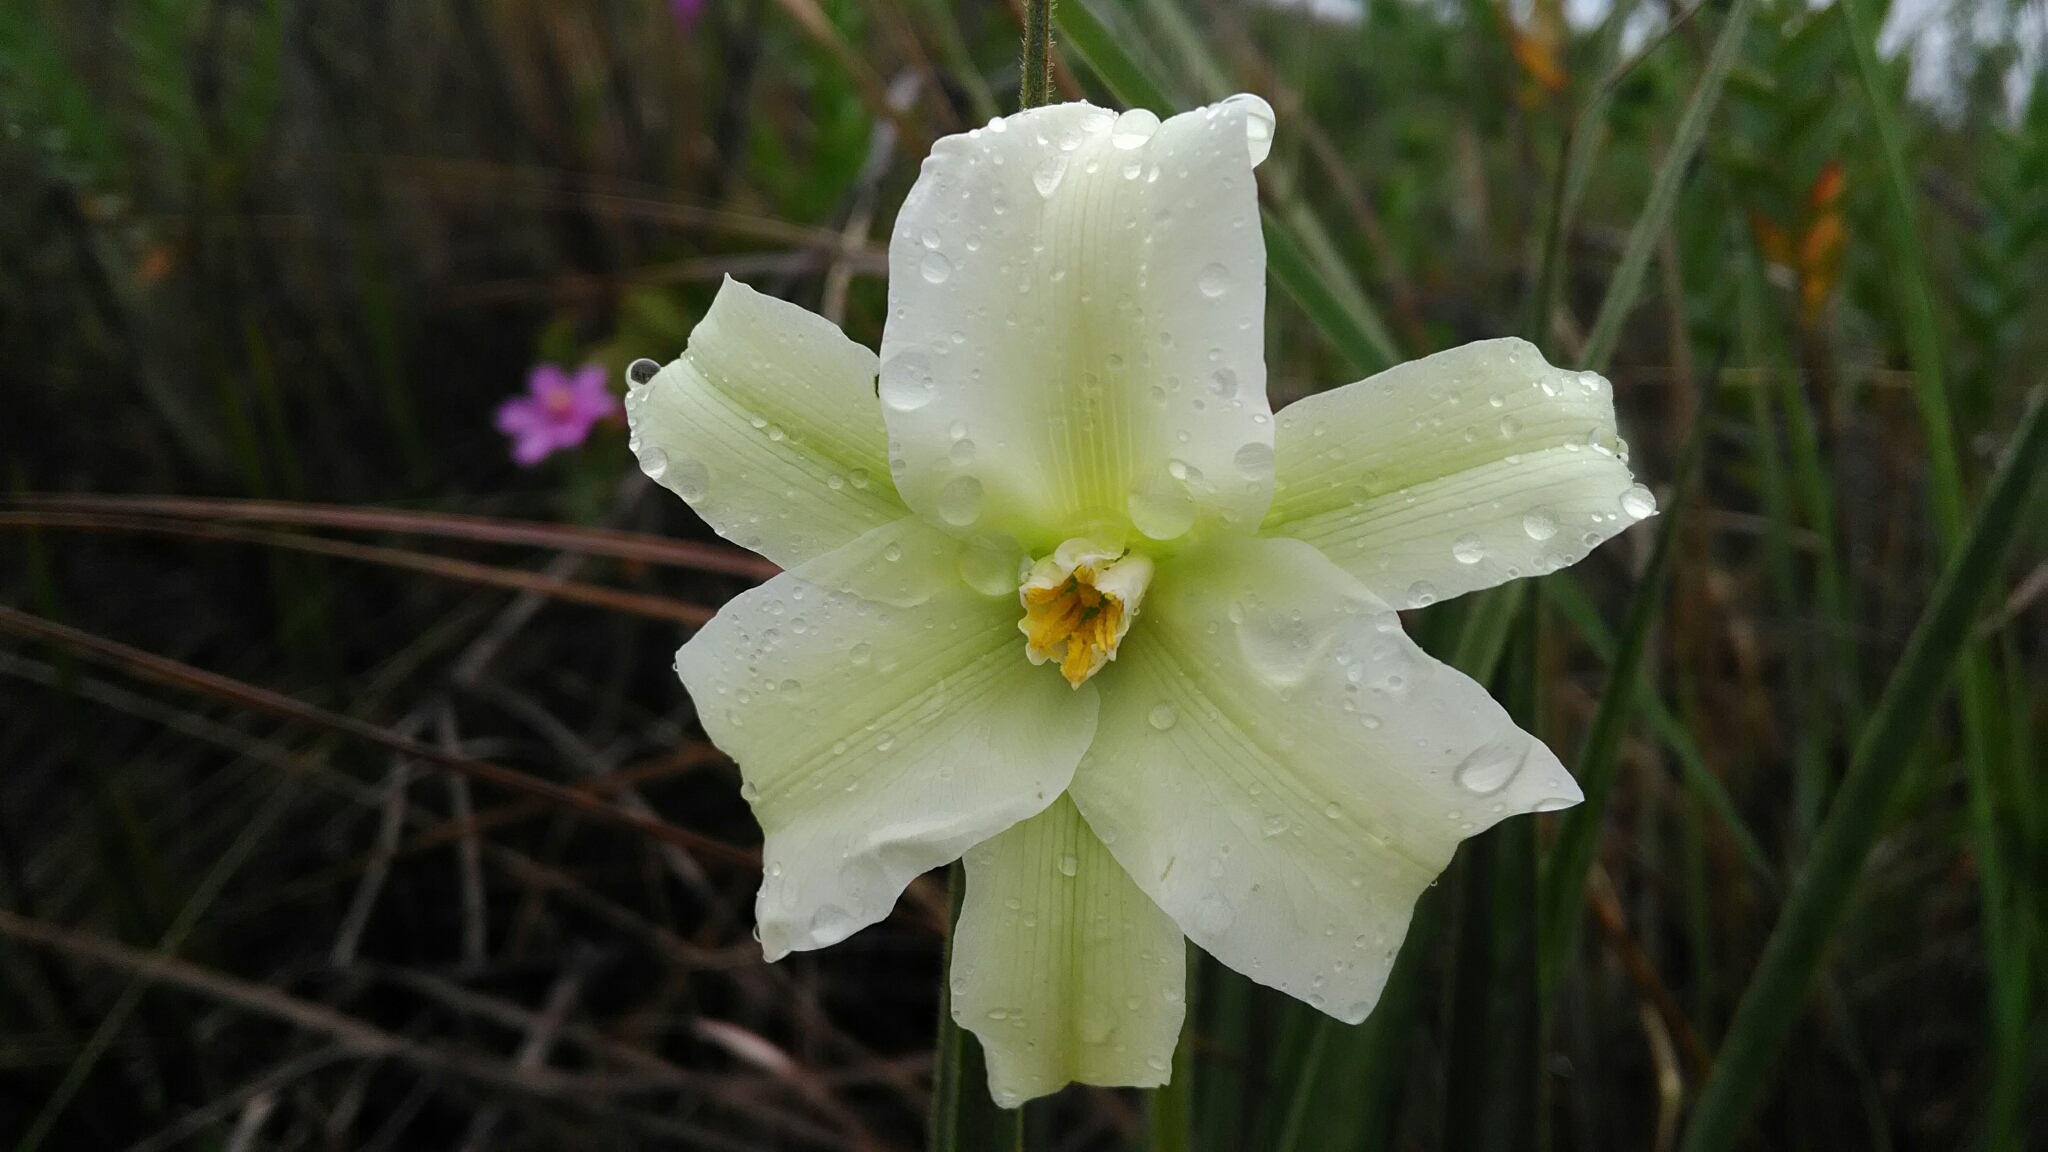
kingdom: Plantae
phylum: Tracheophyta
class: Liliopsida
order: Pandanales
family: Velloziaceae
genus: Barbacenia
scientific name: Barbacenia lymansmithii
